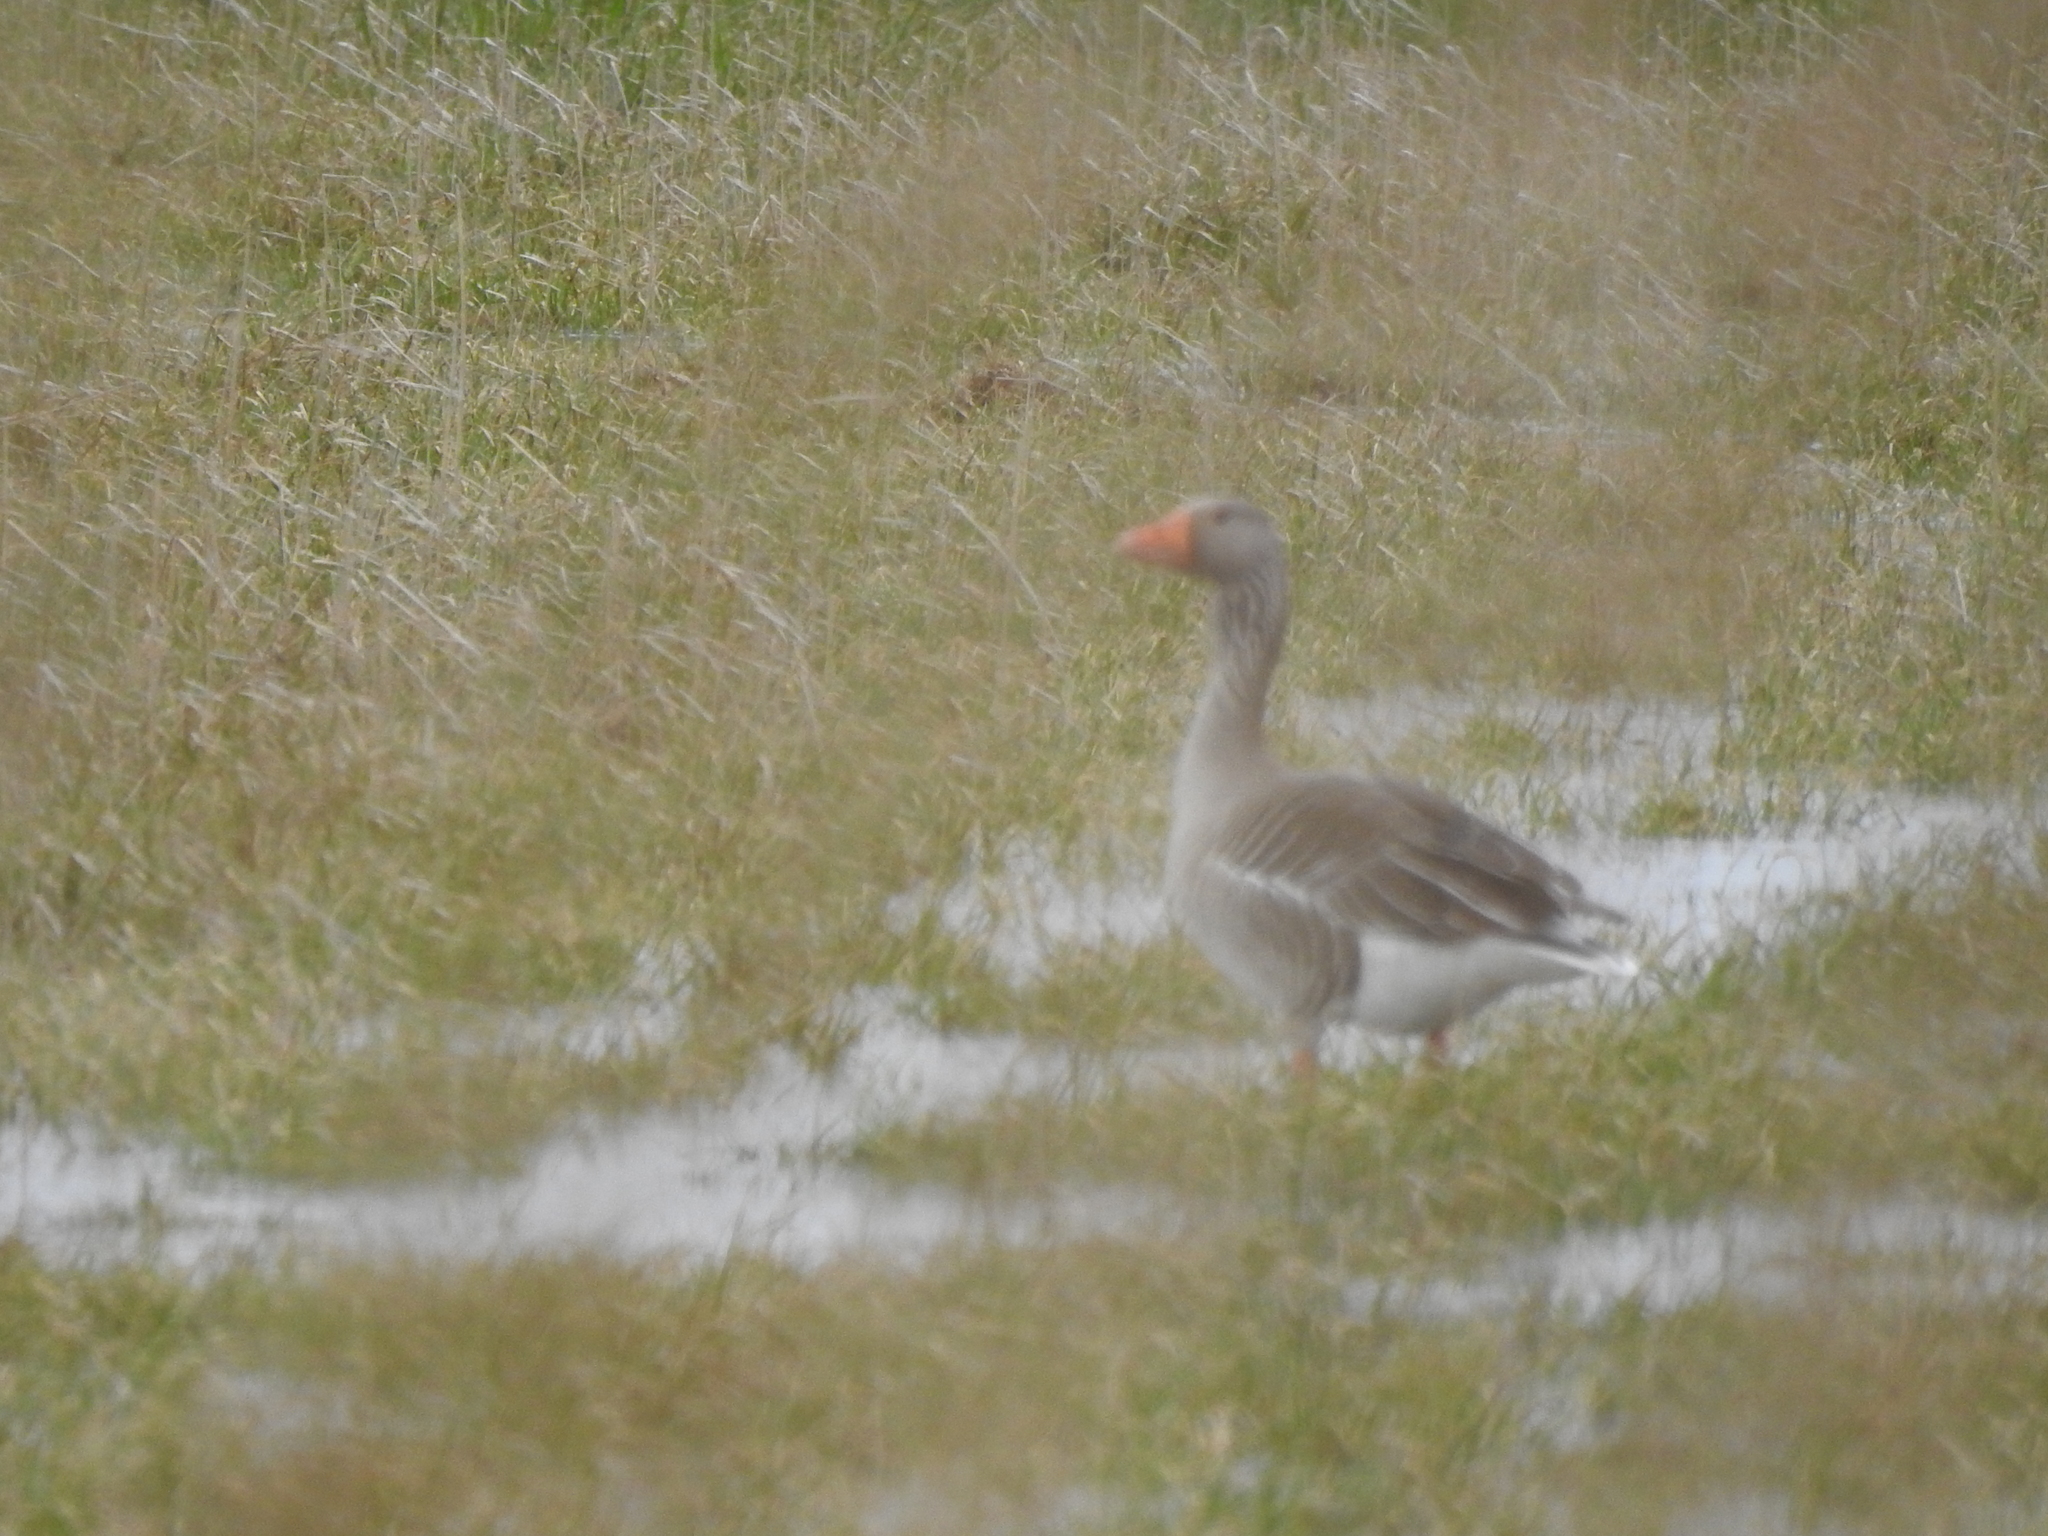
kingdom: Animalia
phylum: Chordata
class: Aves
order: Anseriformes
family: Anatidae
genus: Anser
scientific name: Anser anser
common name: Greylag goose
